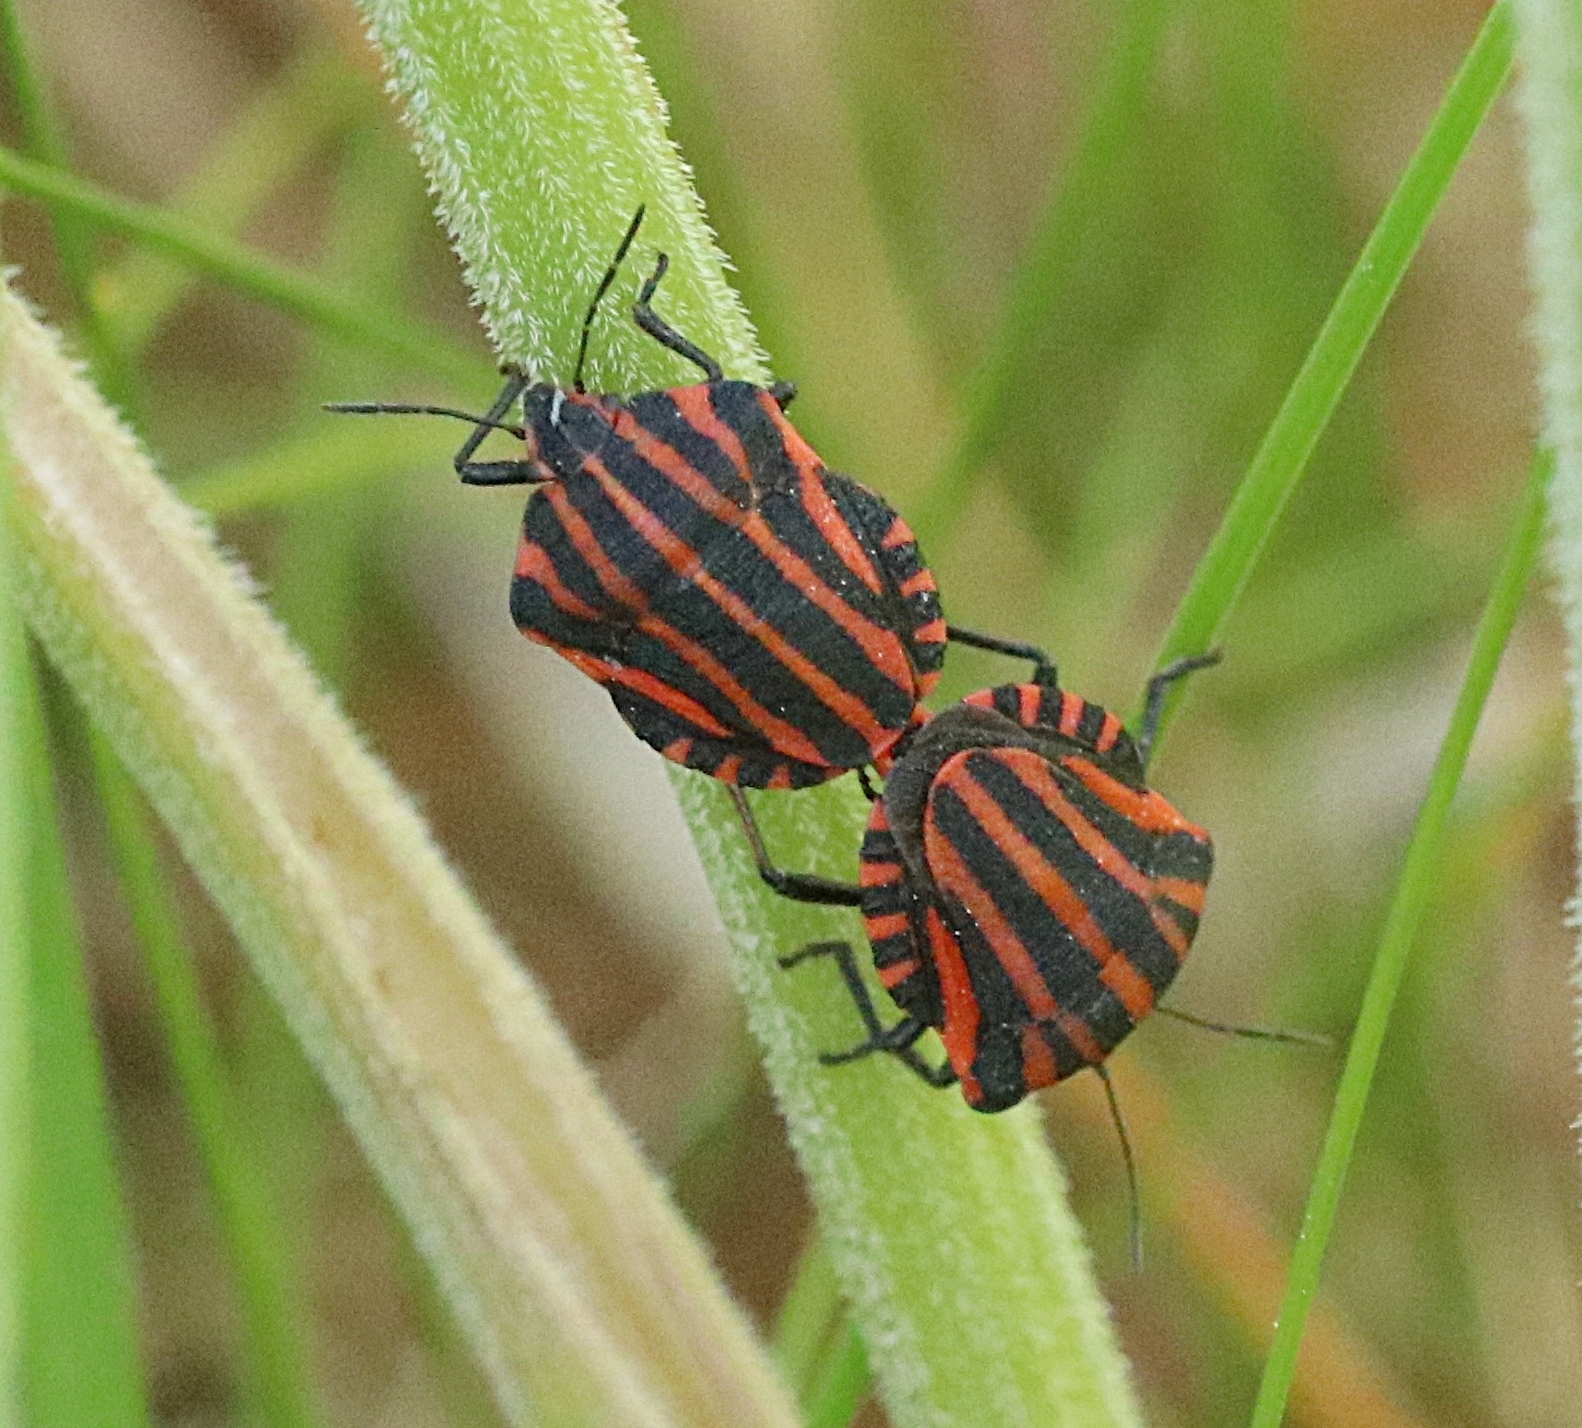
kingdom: Animalia
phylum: Arthropoda
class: Insecta
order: Hemiptera
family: Pentatomidae
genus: Graphosoma
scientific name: Graphosoma italicum
